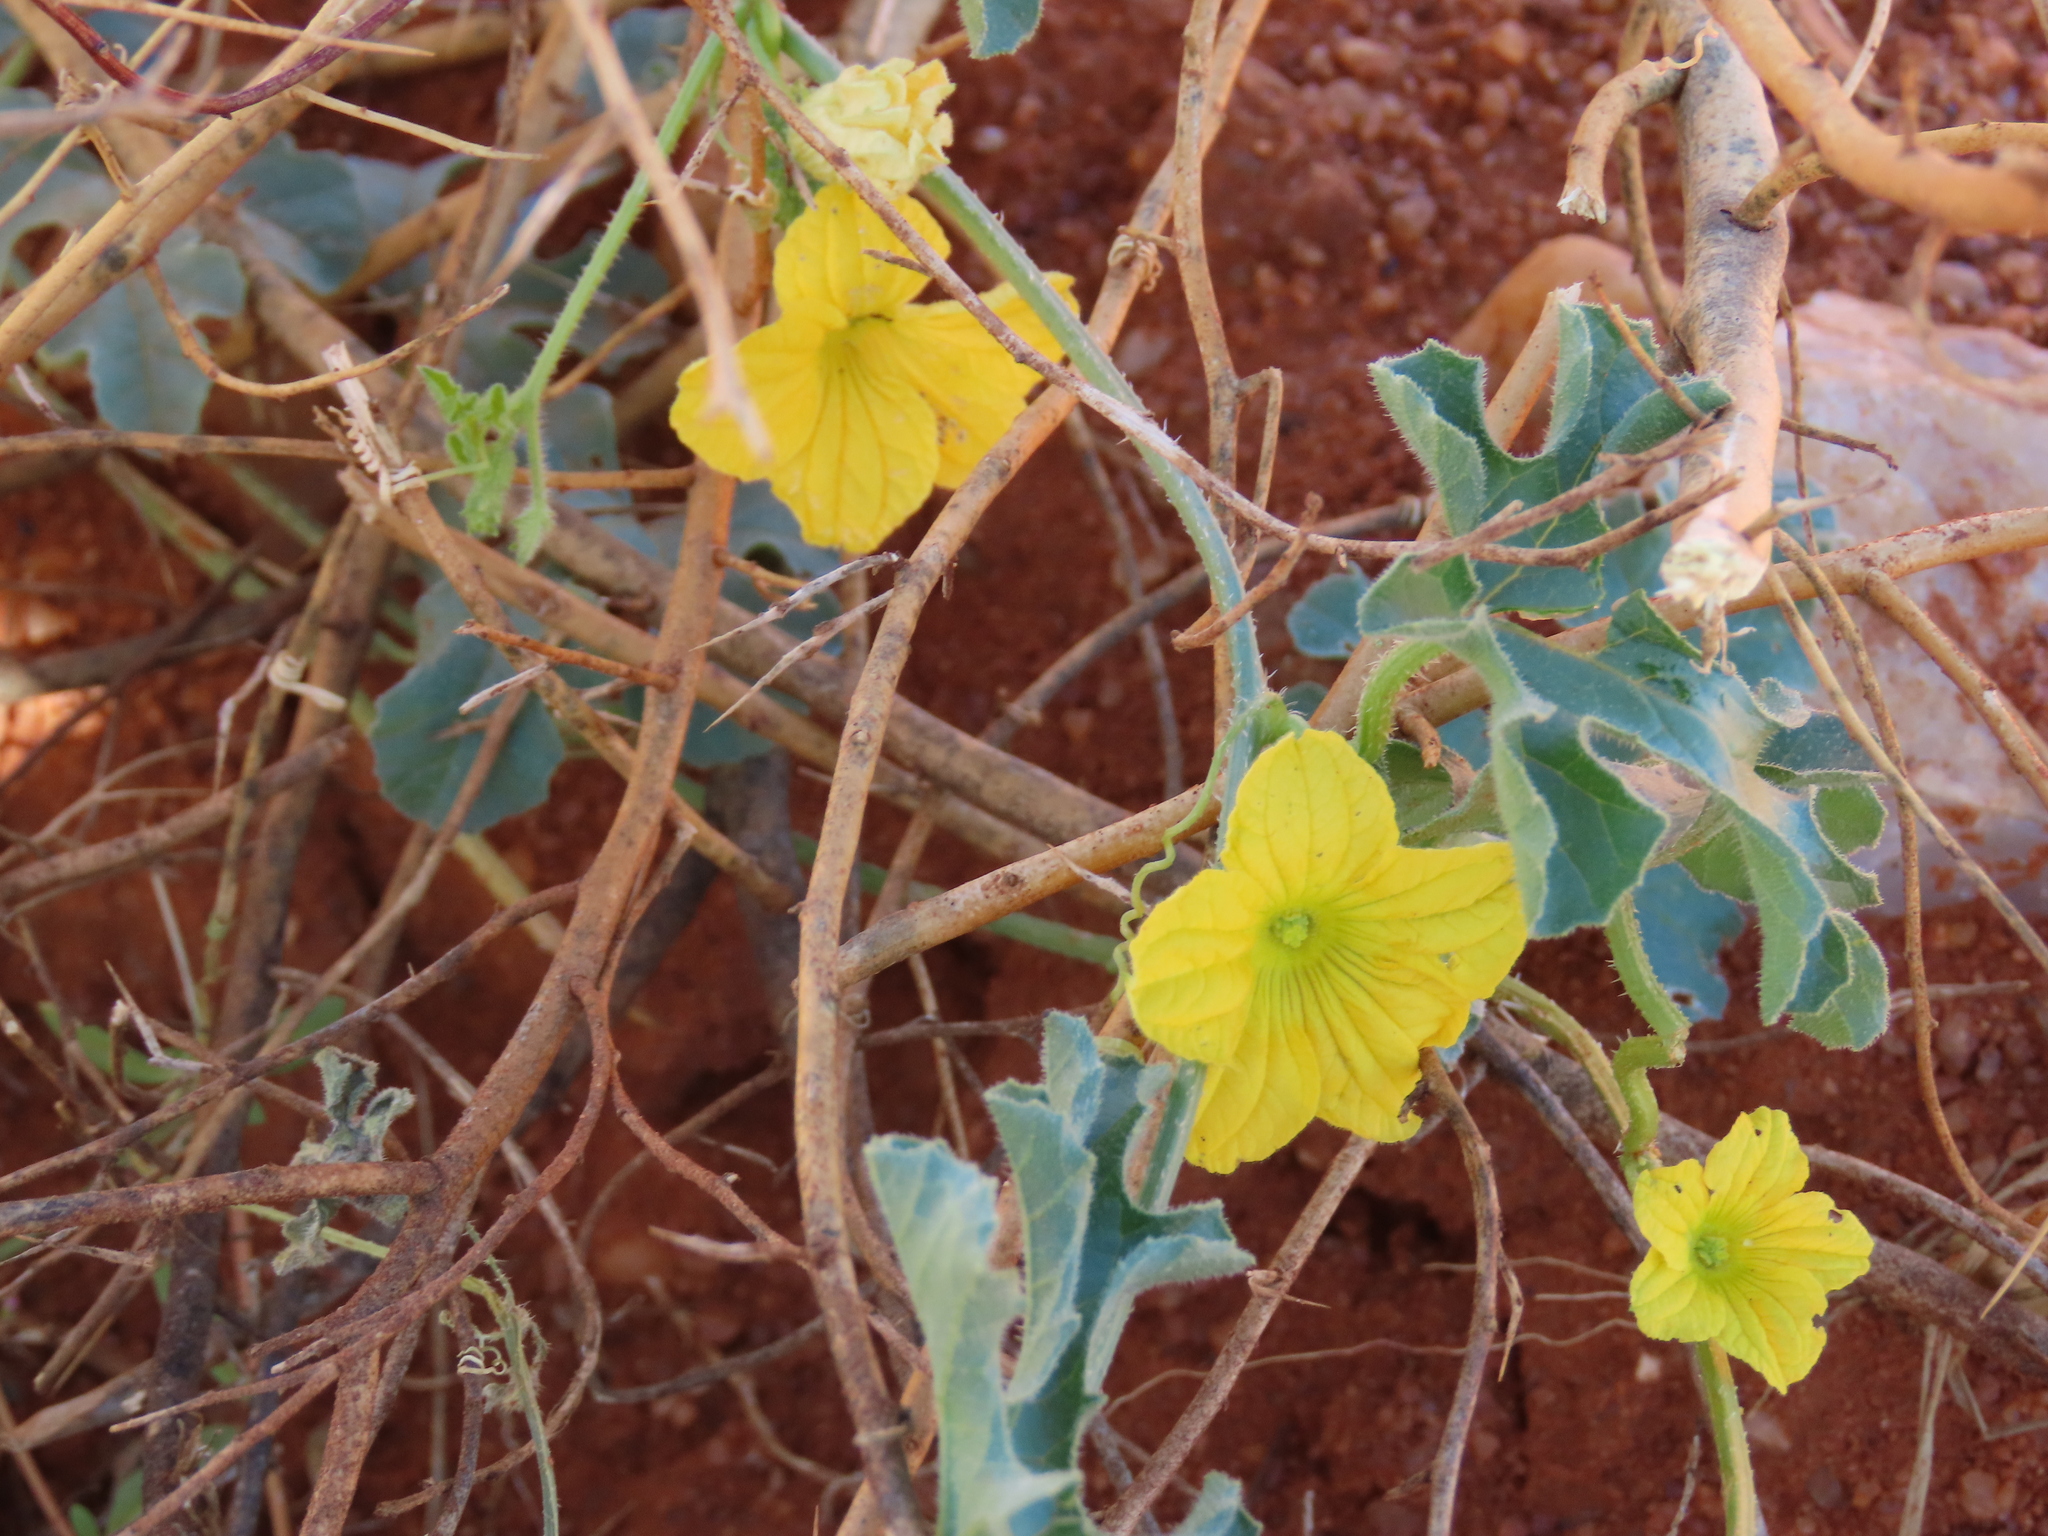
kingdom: Plantae
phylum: Tracheophyta
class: Magnoliopsida
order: Cucurbitales
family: Cucurbitaceae
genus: Cucumis
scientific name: Cucumis africanus
